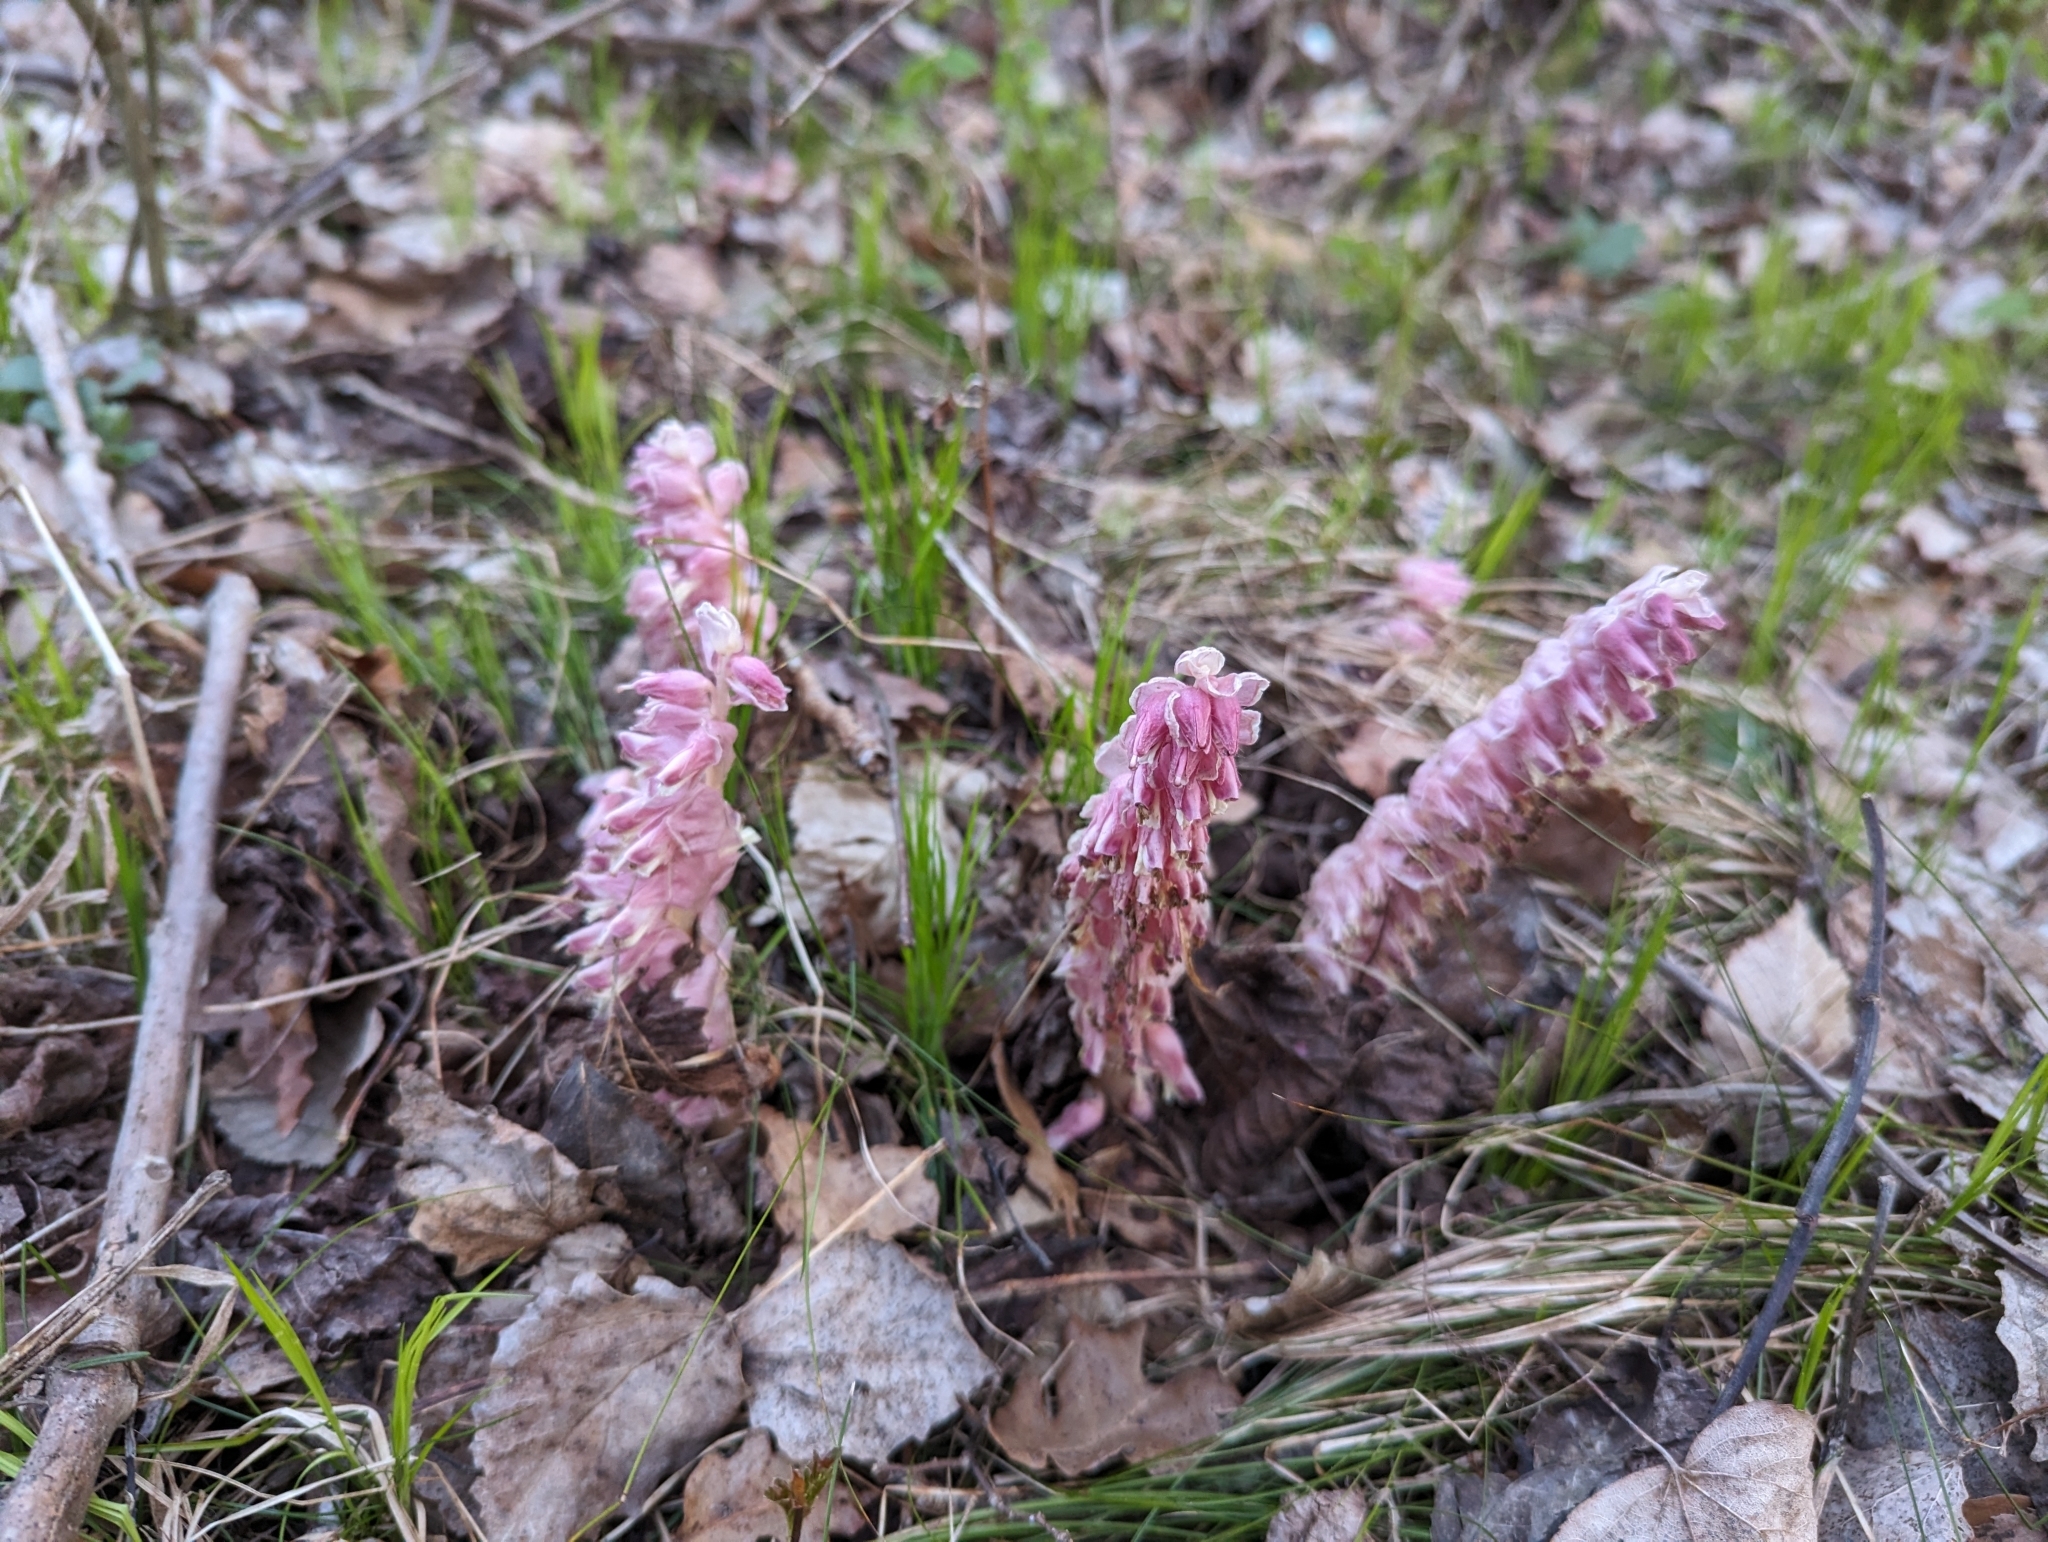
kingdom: Plantae
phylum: Tracheophyta
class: Magnoliopsida
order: Lamiales
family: Orobanchaceae
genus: Lathraea
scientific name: Lathraea squamaria
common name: Toothwort
